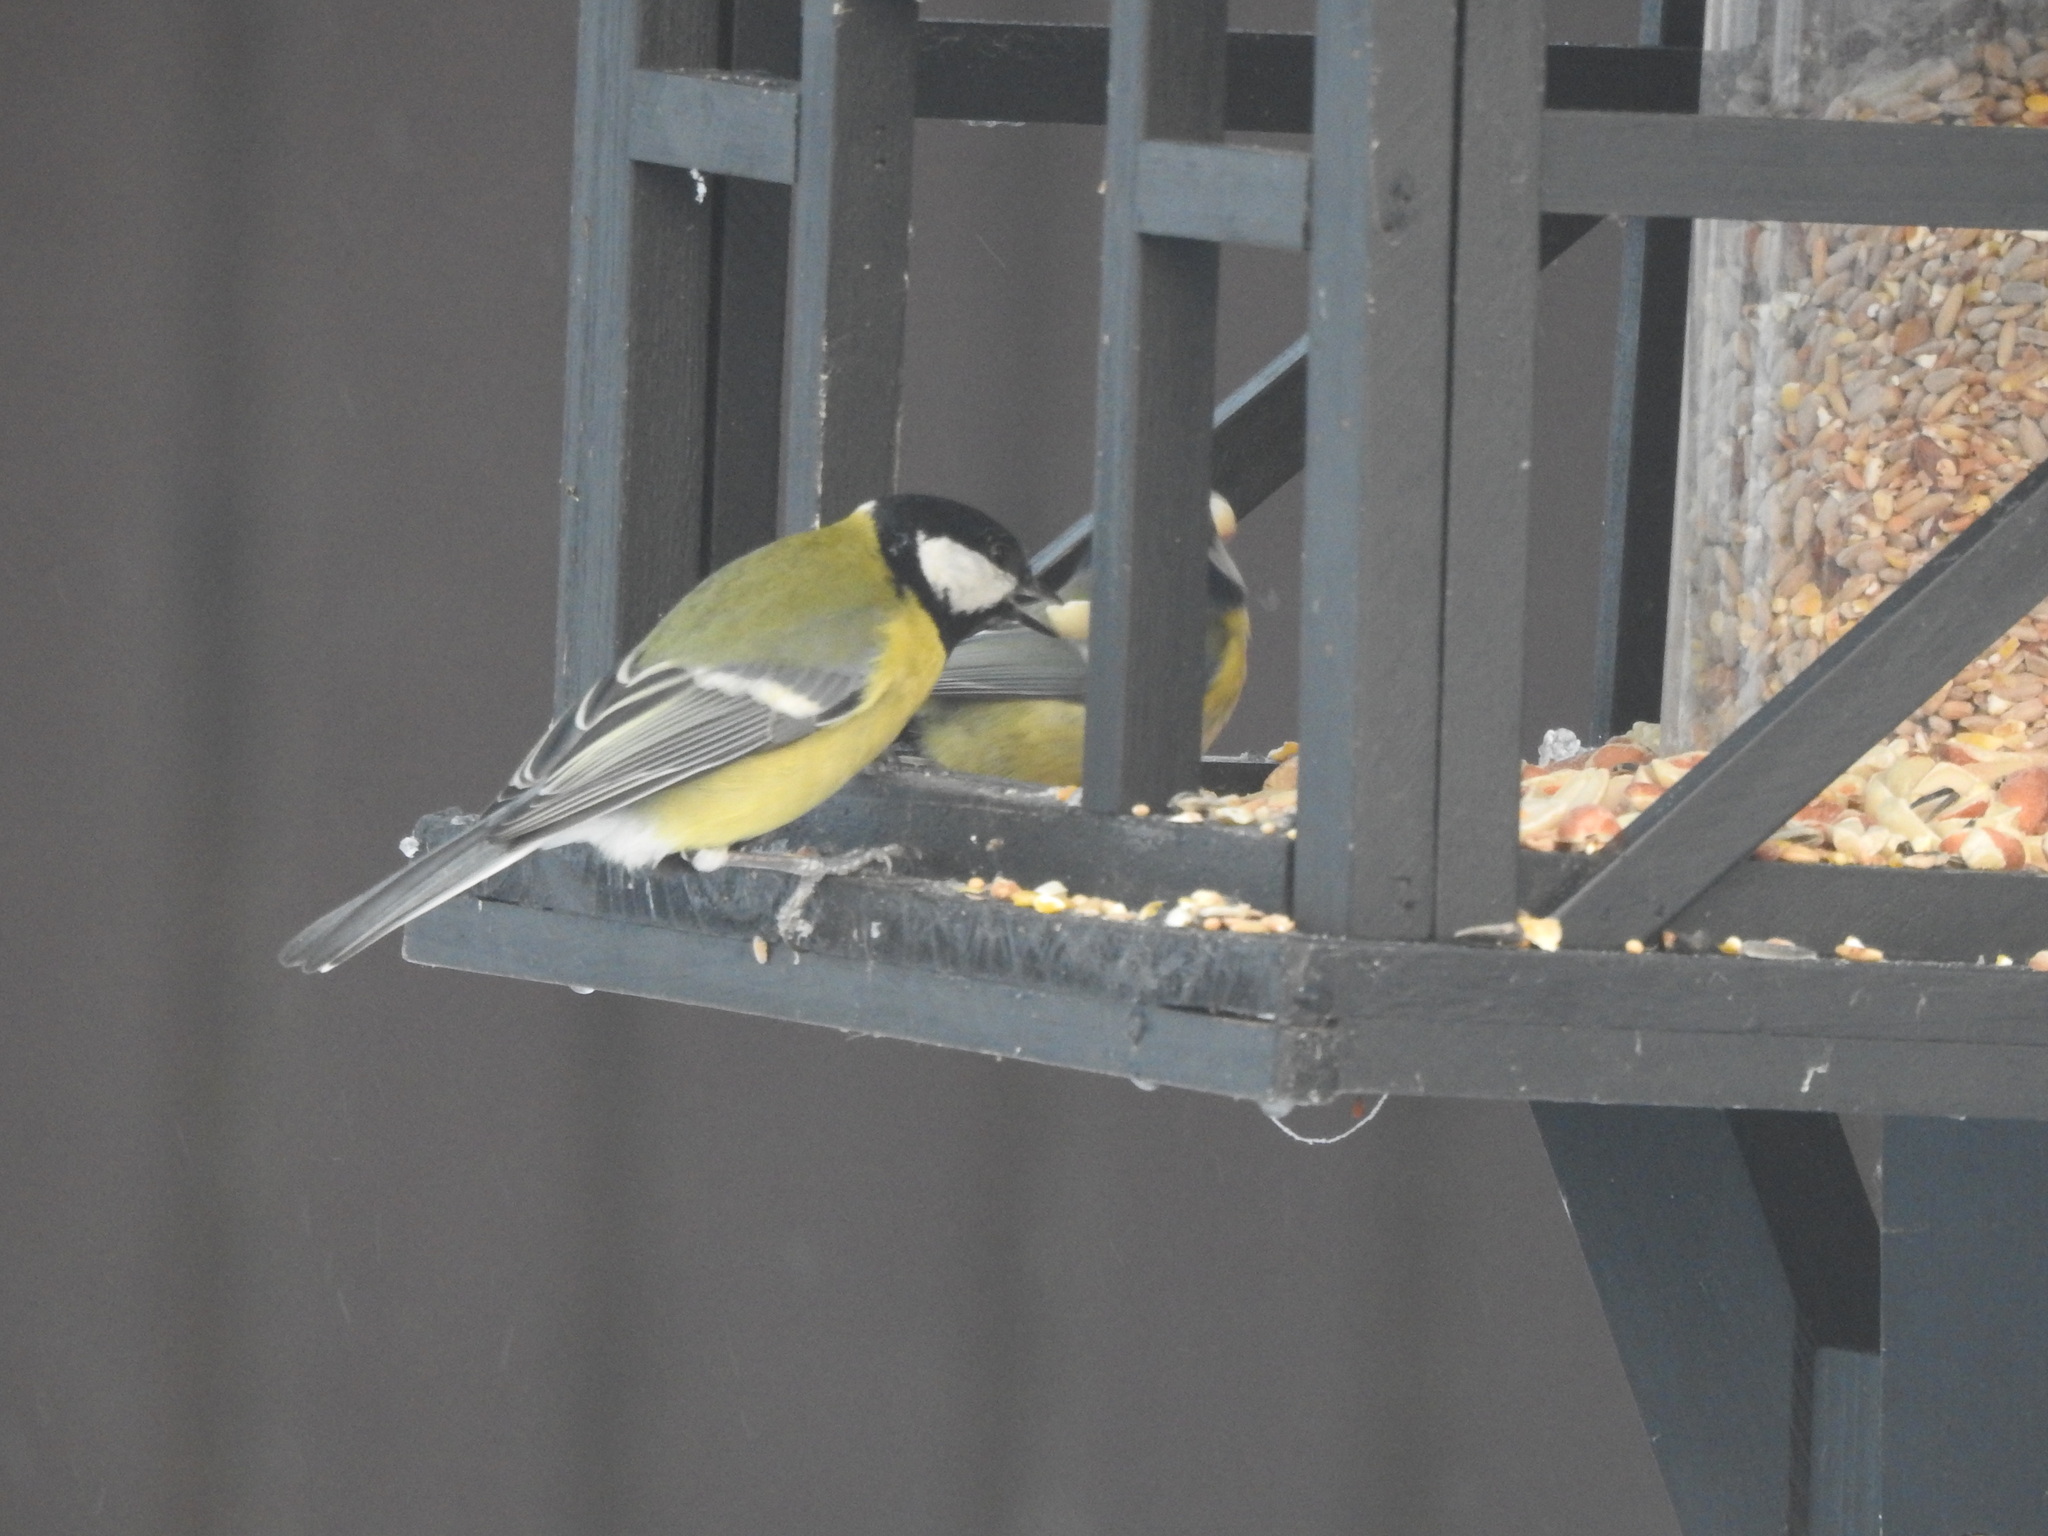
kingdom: Animalia
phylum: Chordata
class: Aves
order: Passeriformes
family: Paridae
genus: Parus
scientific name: Parus major
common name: Great tit
